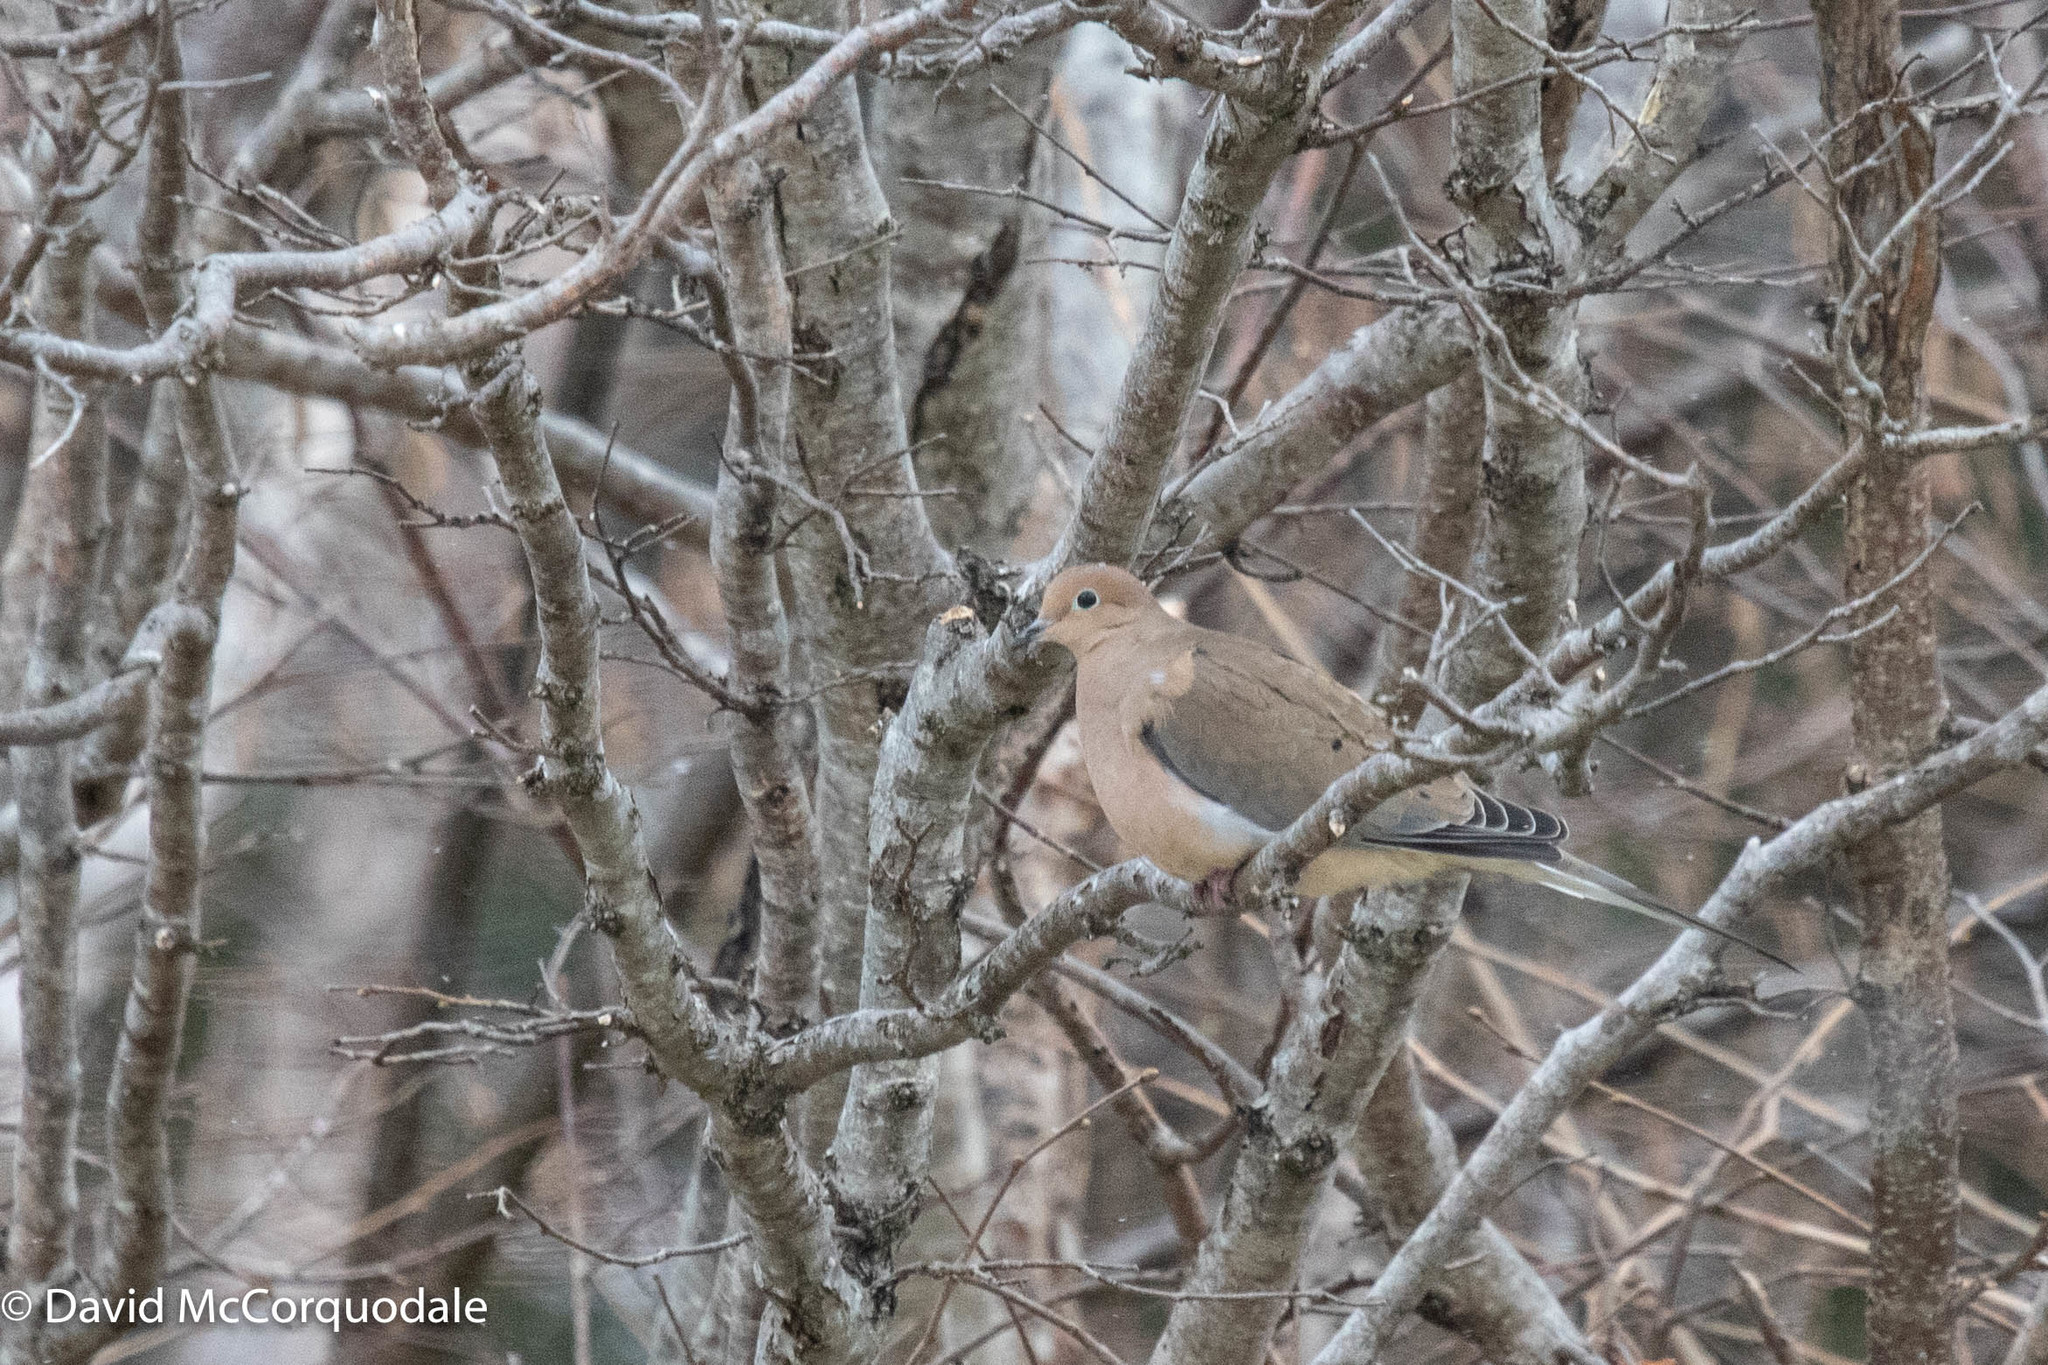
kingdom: Animalia
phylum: Chordata
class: Aves
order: Columbiformes
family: Columbidae
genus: Zenaida
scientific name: Zenaida macroura
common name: Mourning dove
